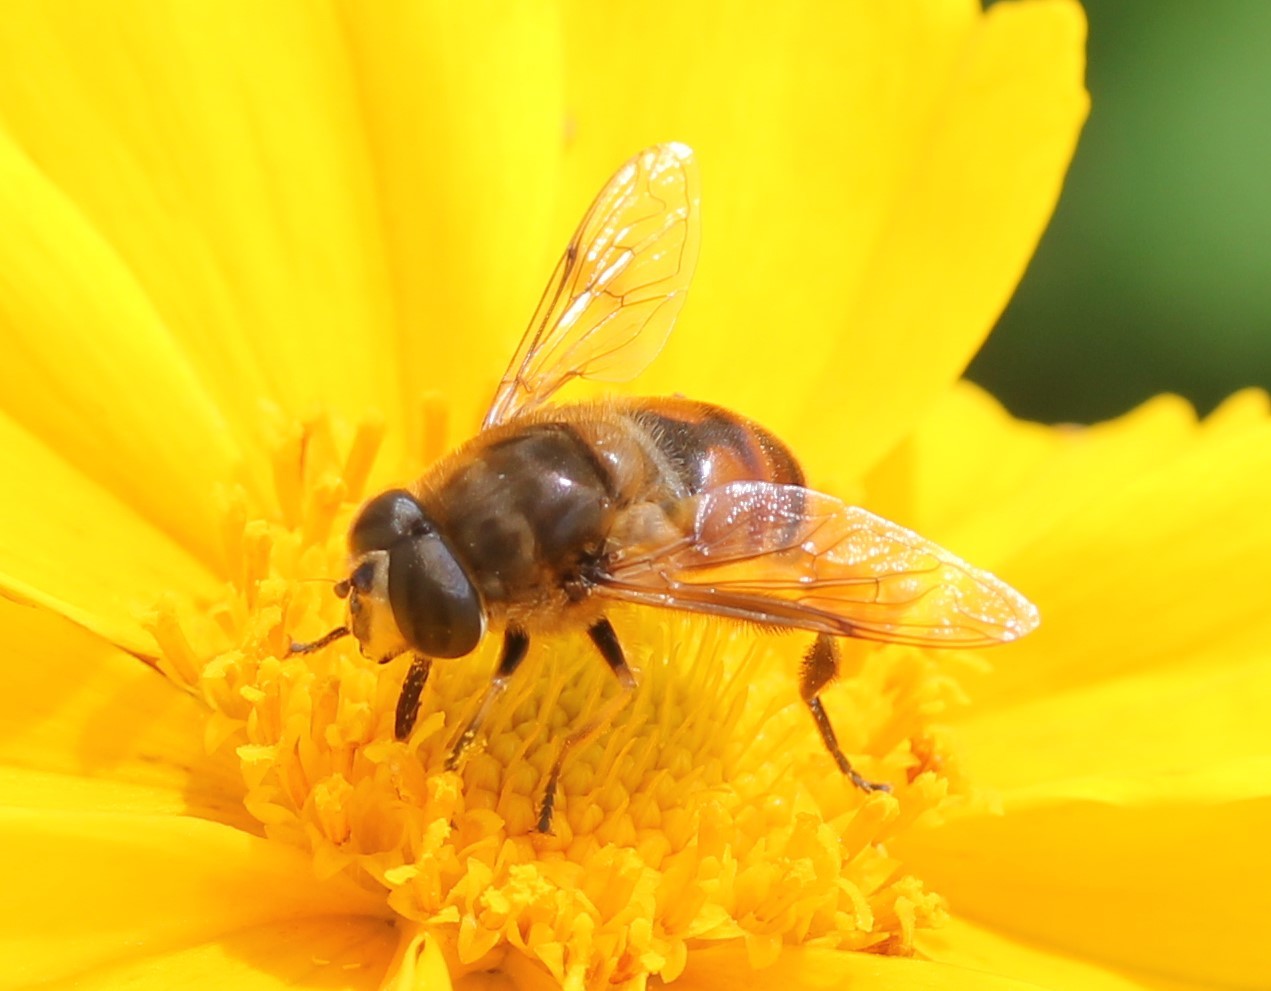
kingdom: Animalia
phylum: Arthropoda
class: Insecta
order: Diptera
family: Syrphidae
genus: Eristalis
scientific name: Eristalis tenax
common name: Drone fly
